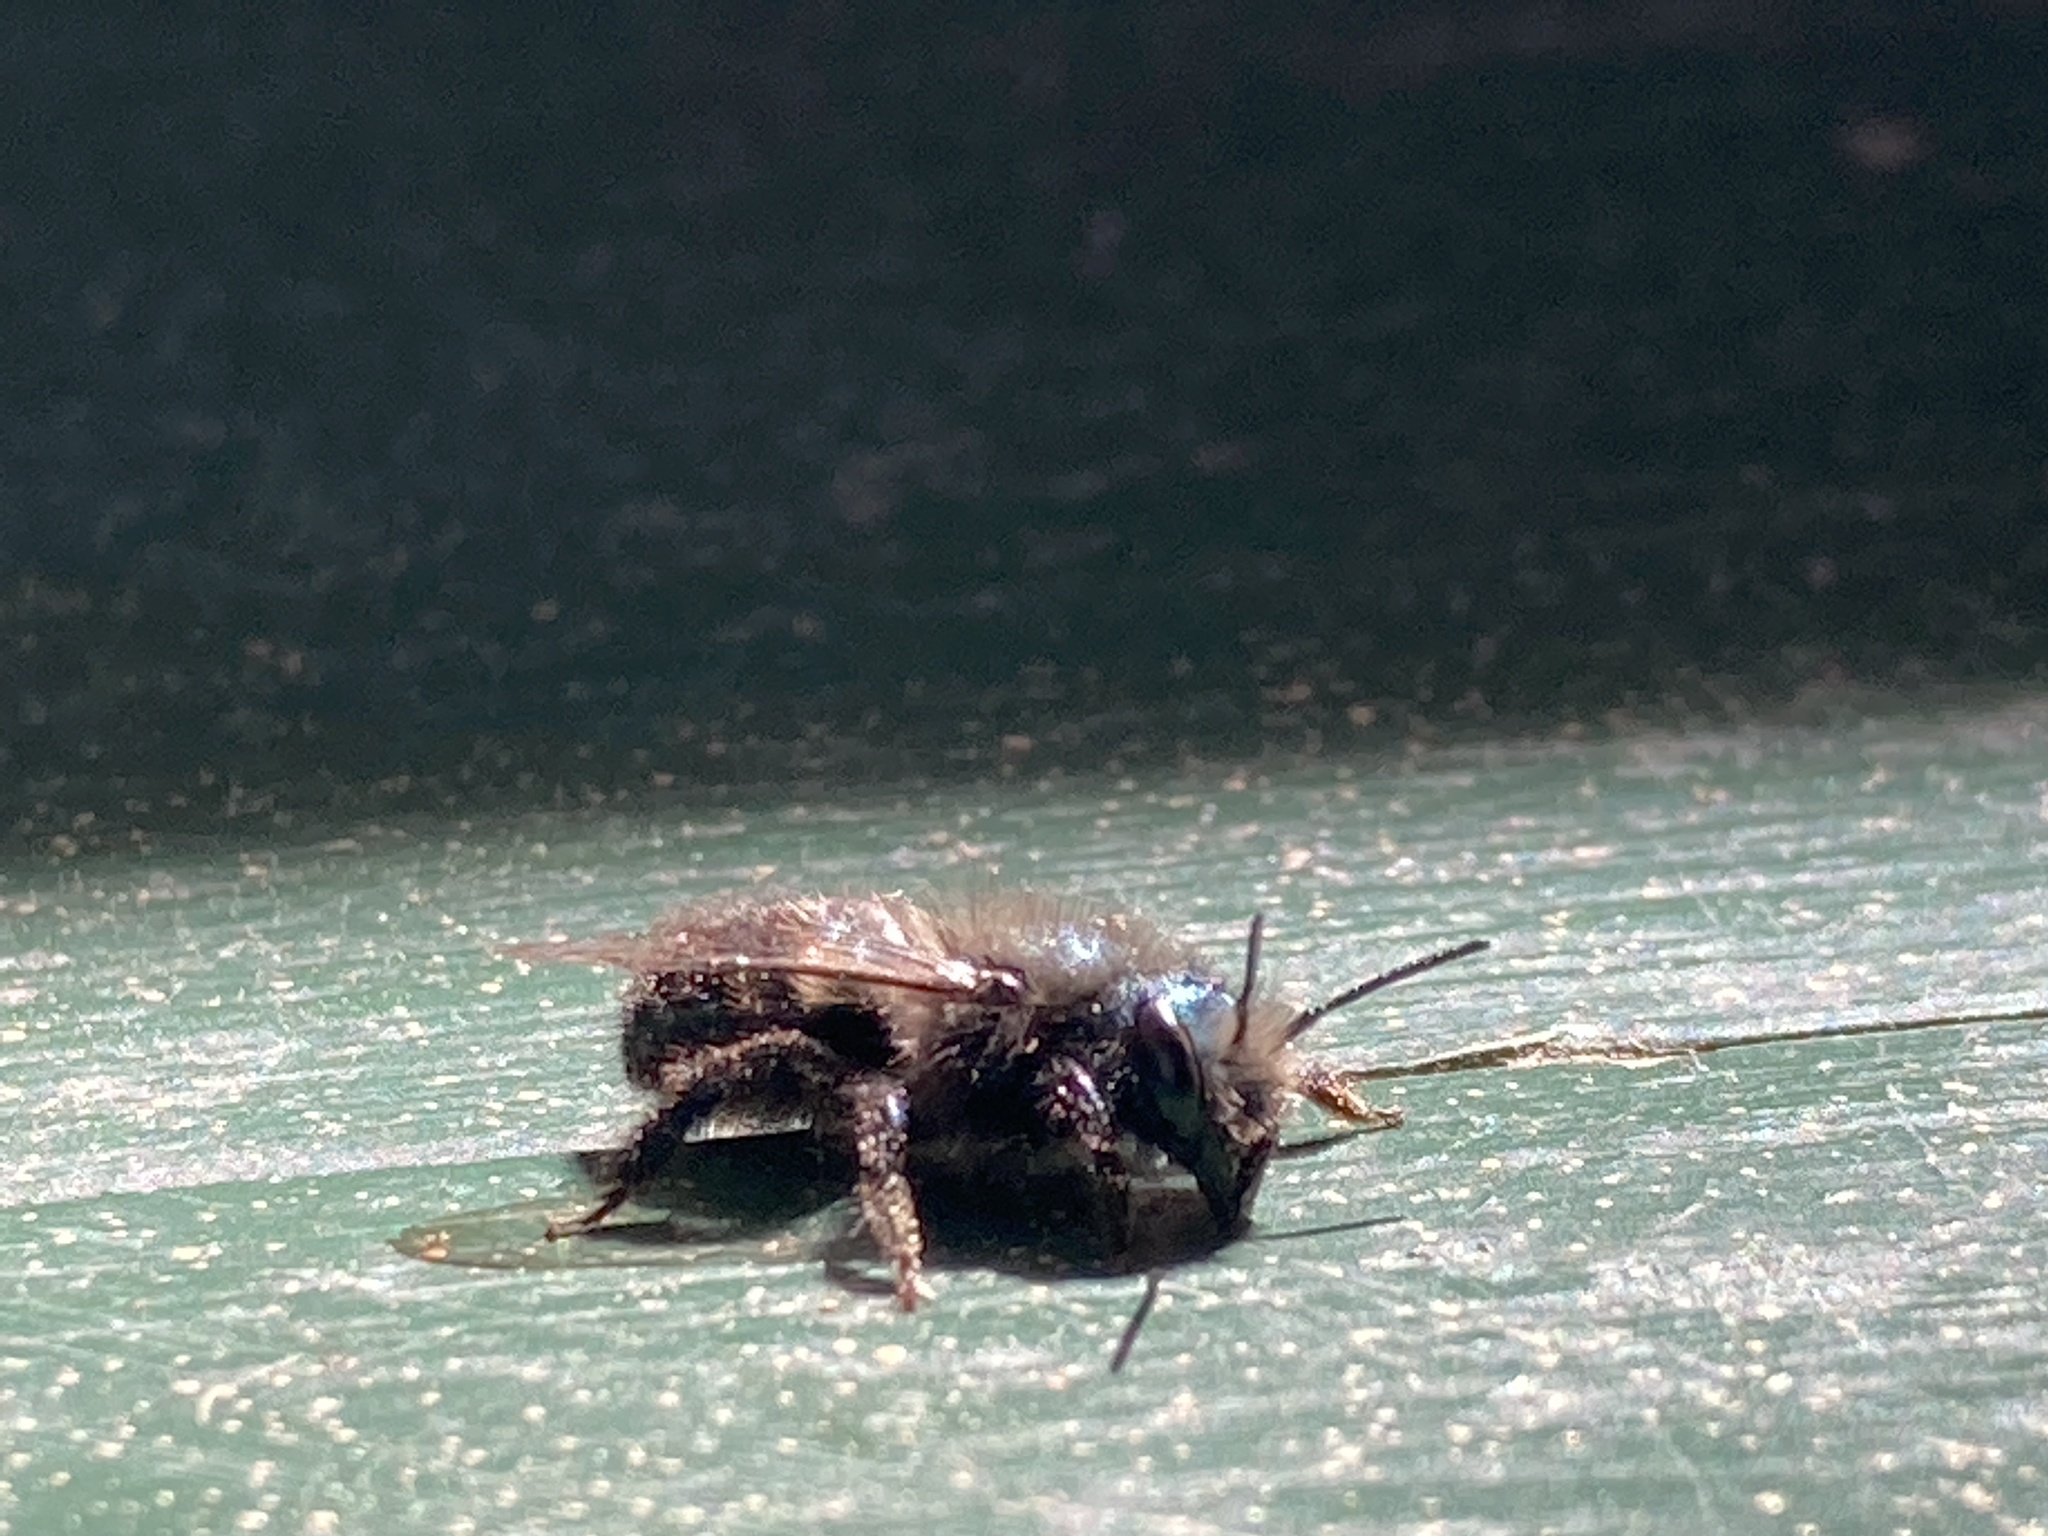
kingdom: Animalia
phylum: Arthropoda
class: Insecta
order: Hymenoptera
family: Megachilidae
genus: Osmia
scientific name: Osmia lignaria
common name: Blue orchard bee
